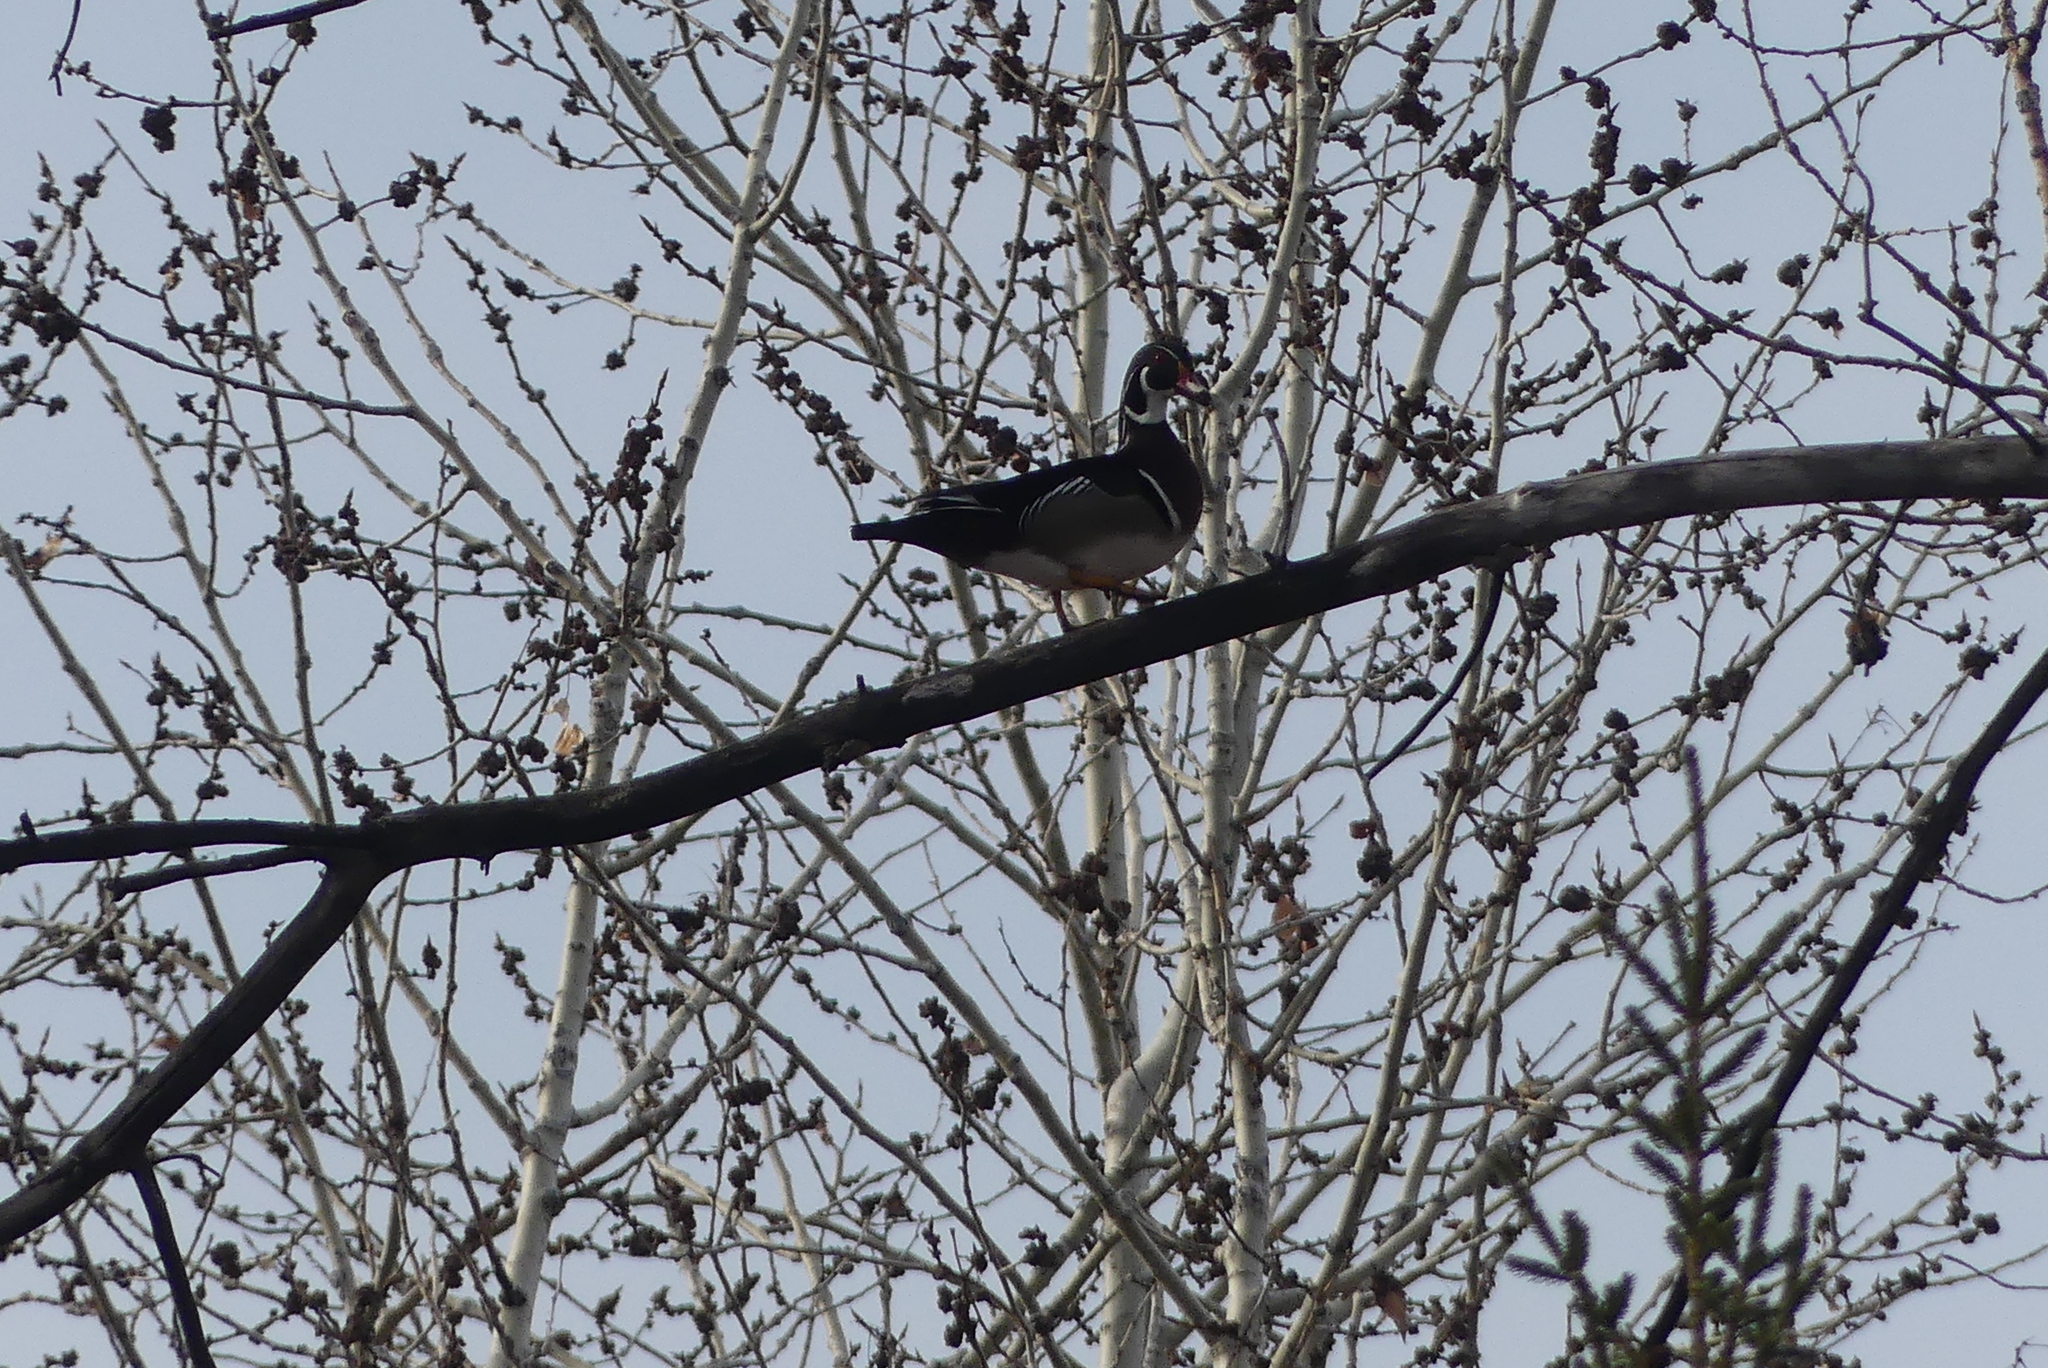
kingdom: Animalia
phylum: Chordata
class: Aves
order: Anseriformes
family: Anatidae
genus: Aix
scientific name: Aix sponsa
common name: Wood duck
